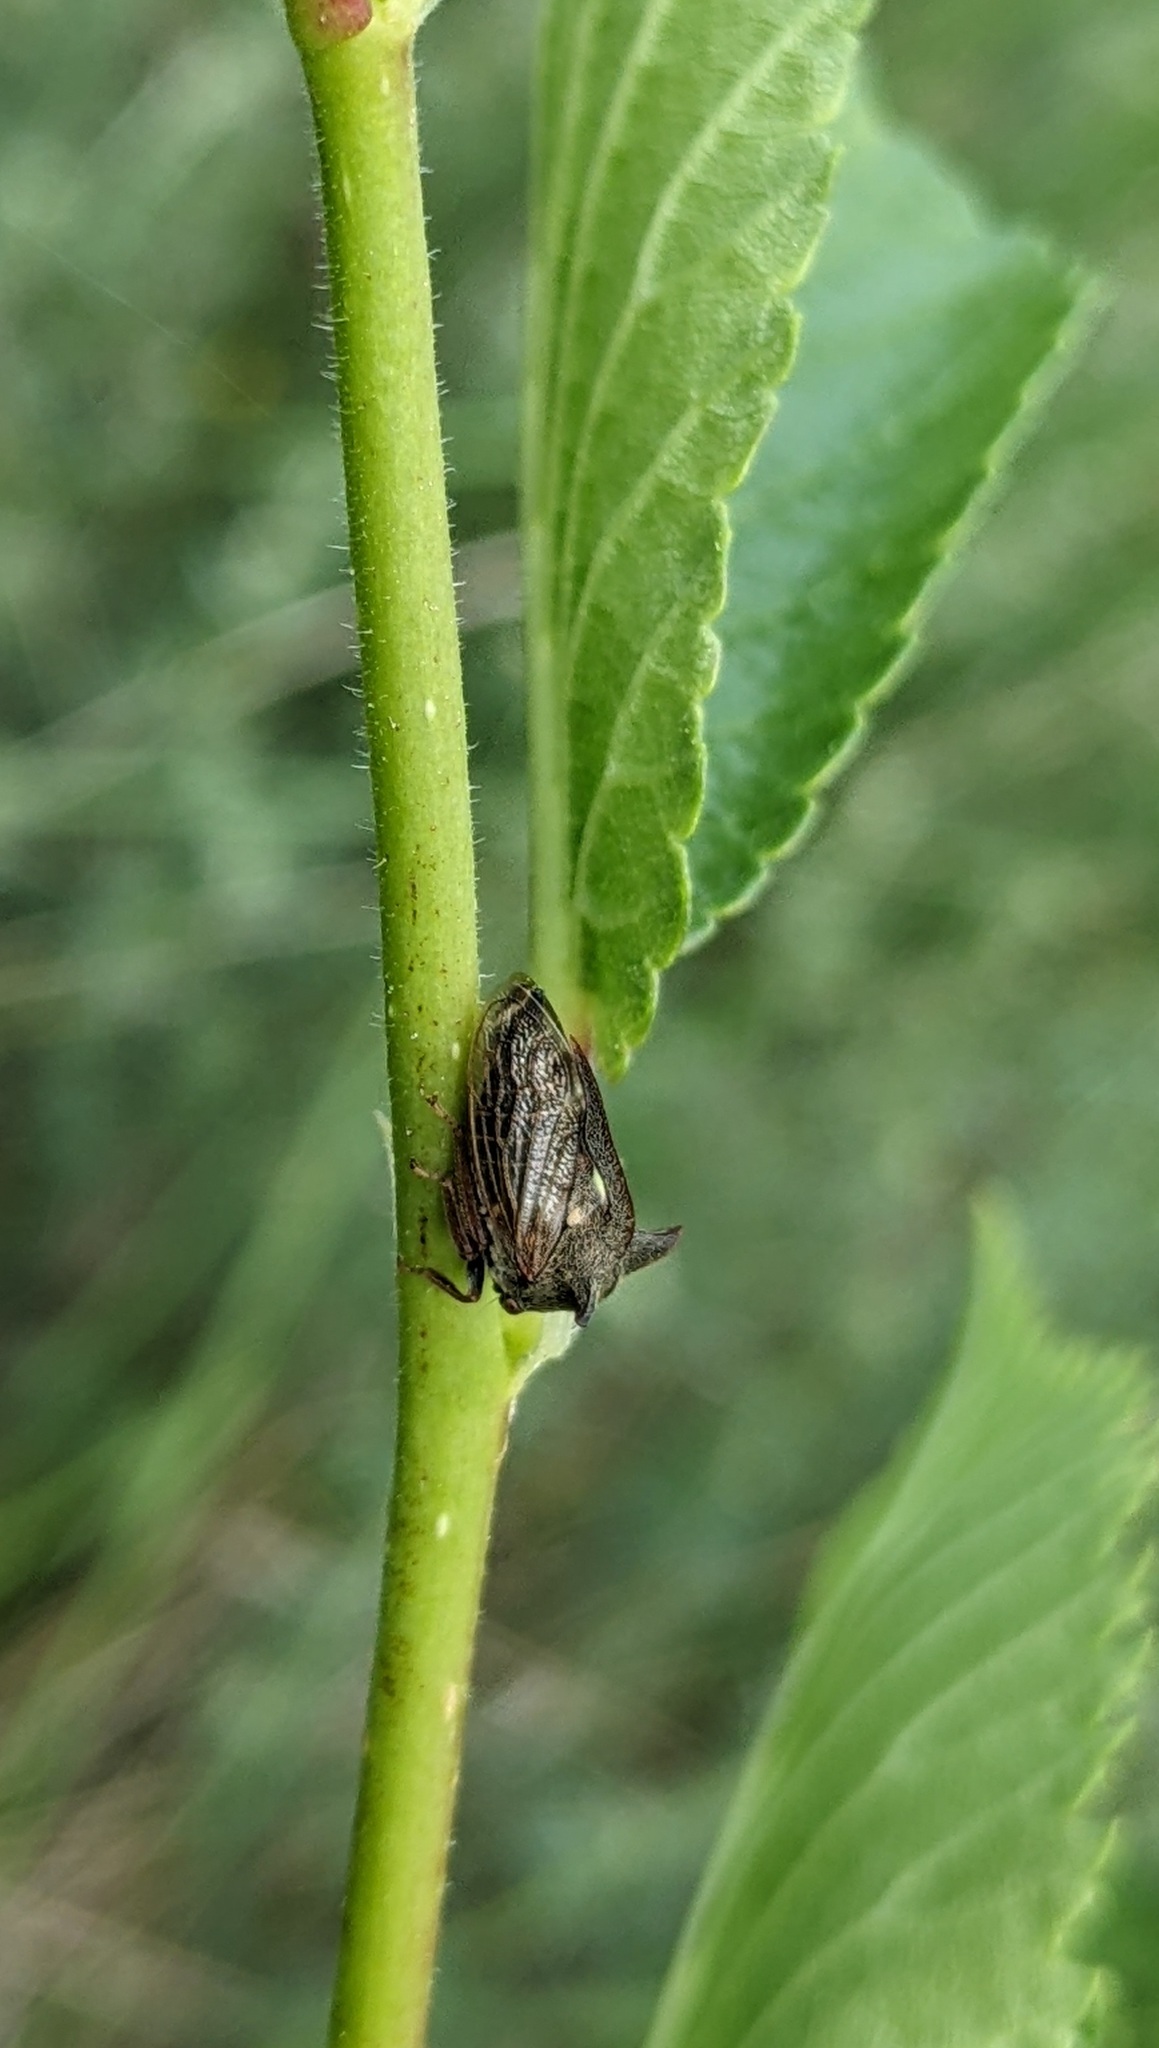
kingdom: Animalia
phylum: Arthropoda
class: Insecta
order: Hemiptera
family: Membracidae
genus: Centrotus
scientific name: Centrotus cornuta
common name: Treehopper
